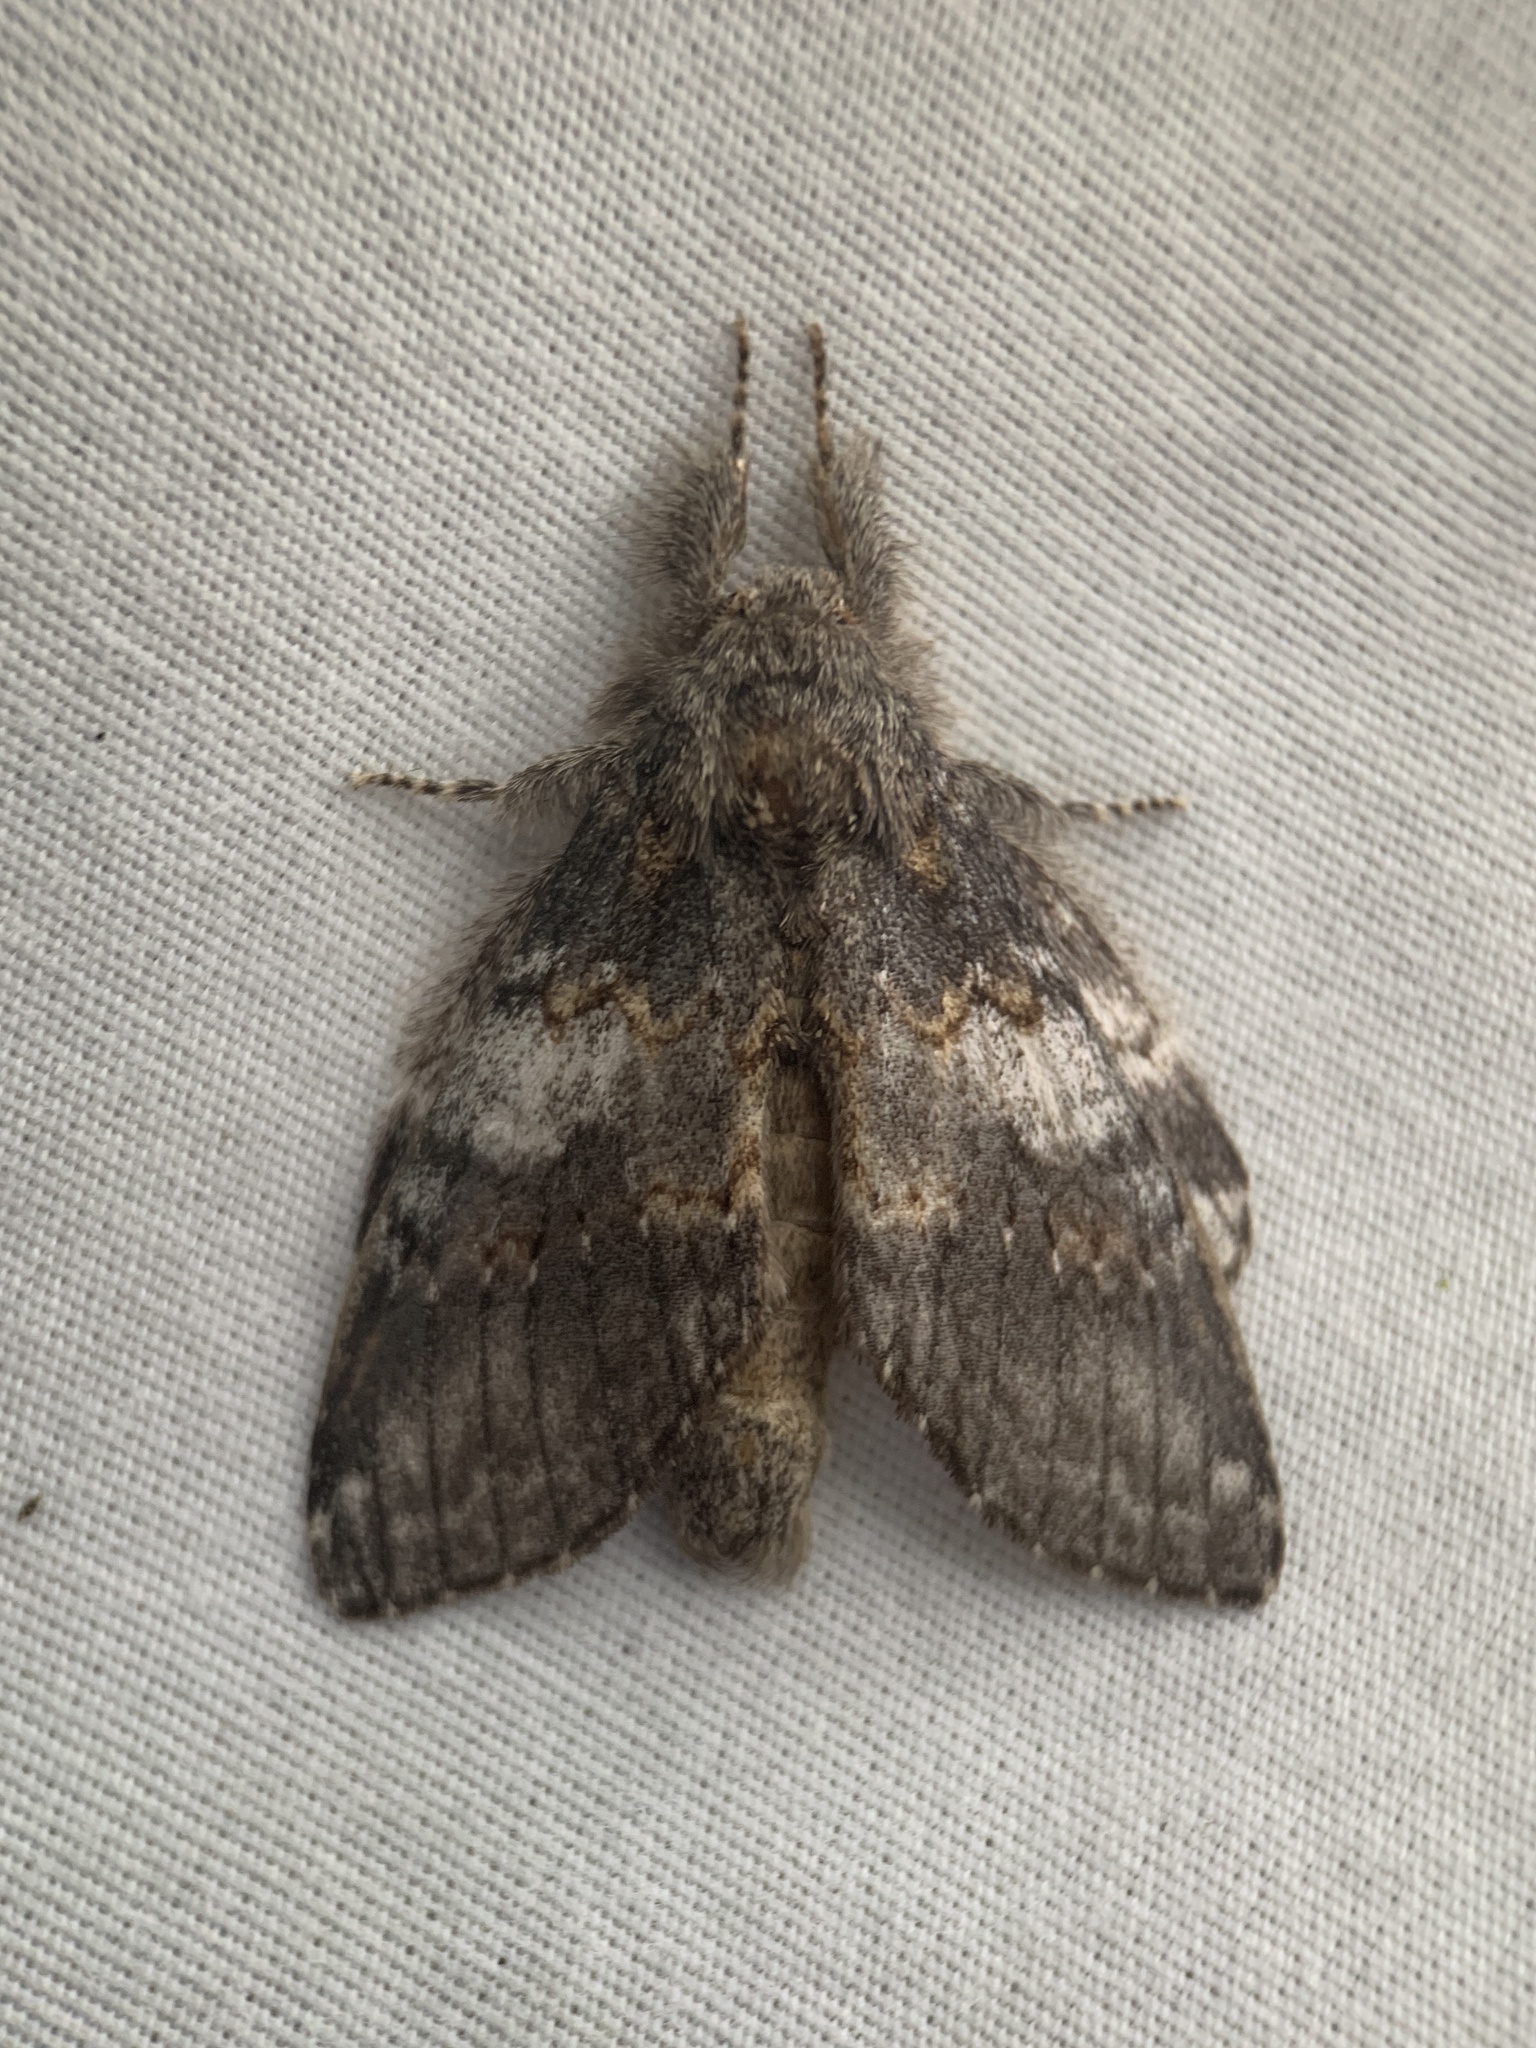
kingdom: Animalia
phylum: Arthropoda
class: Insecta
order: Lepidoptera
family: Notodontidae
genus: Peridea
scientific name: Peridea angulosa
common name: Angulose prominent
